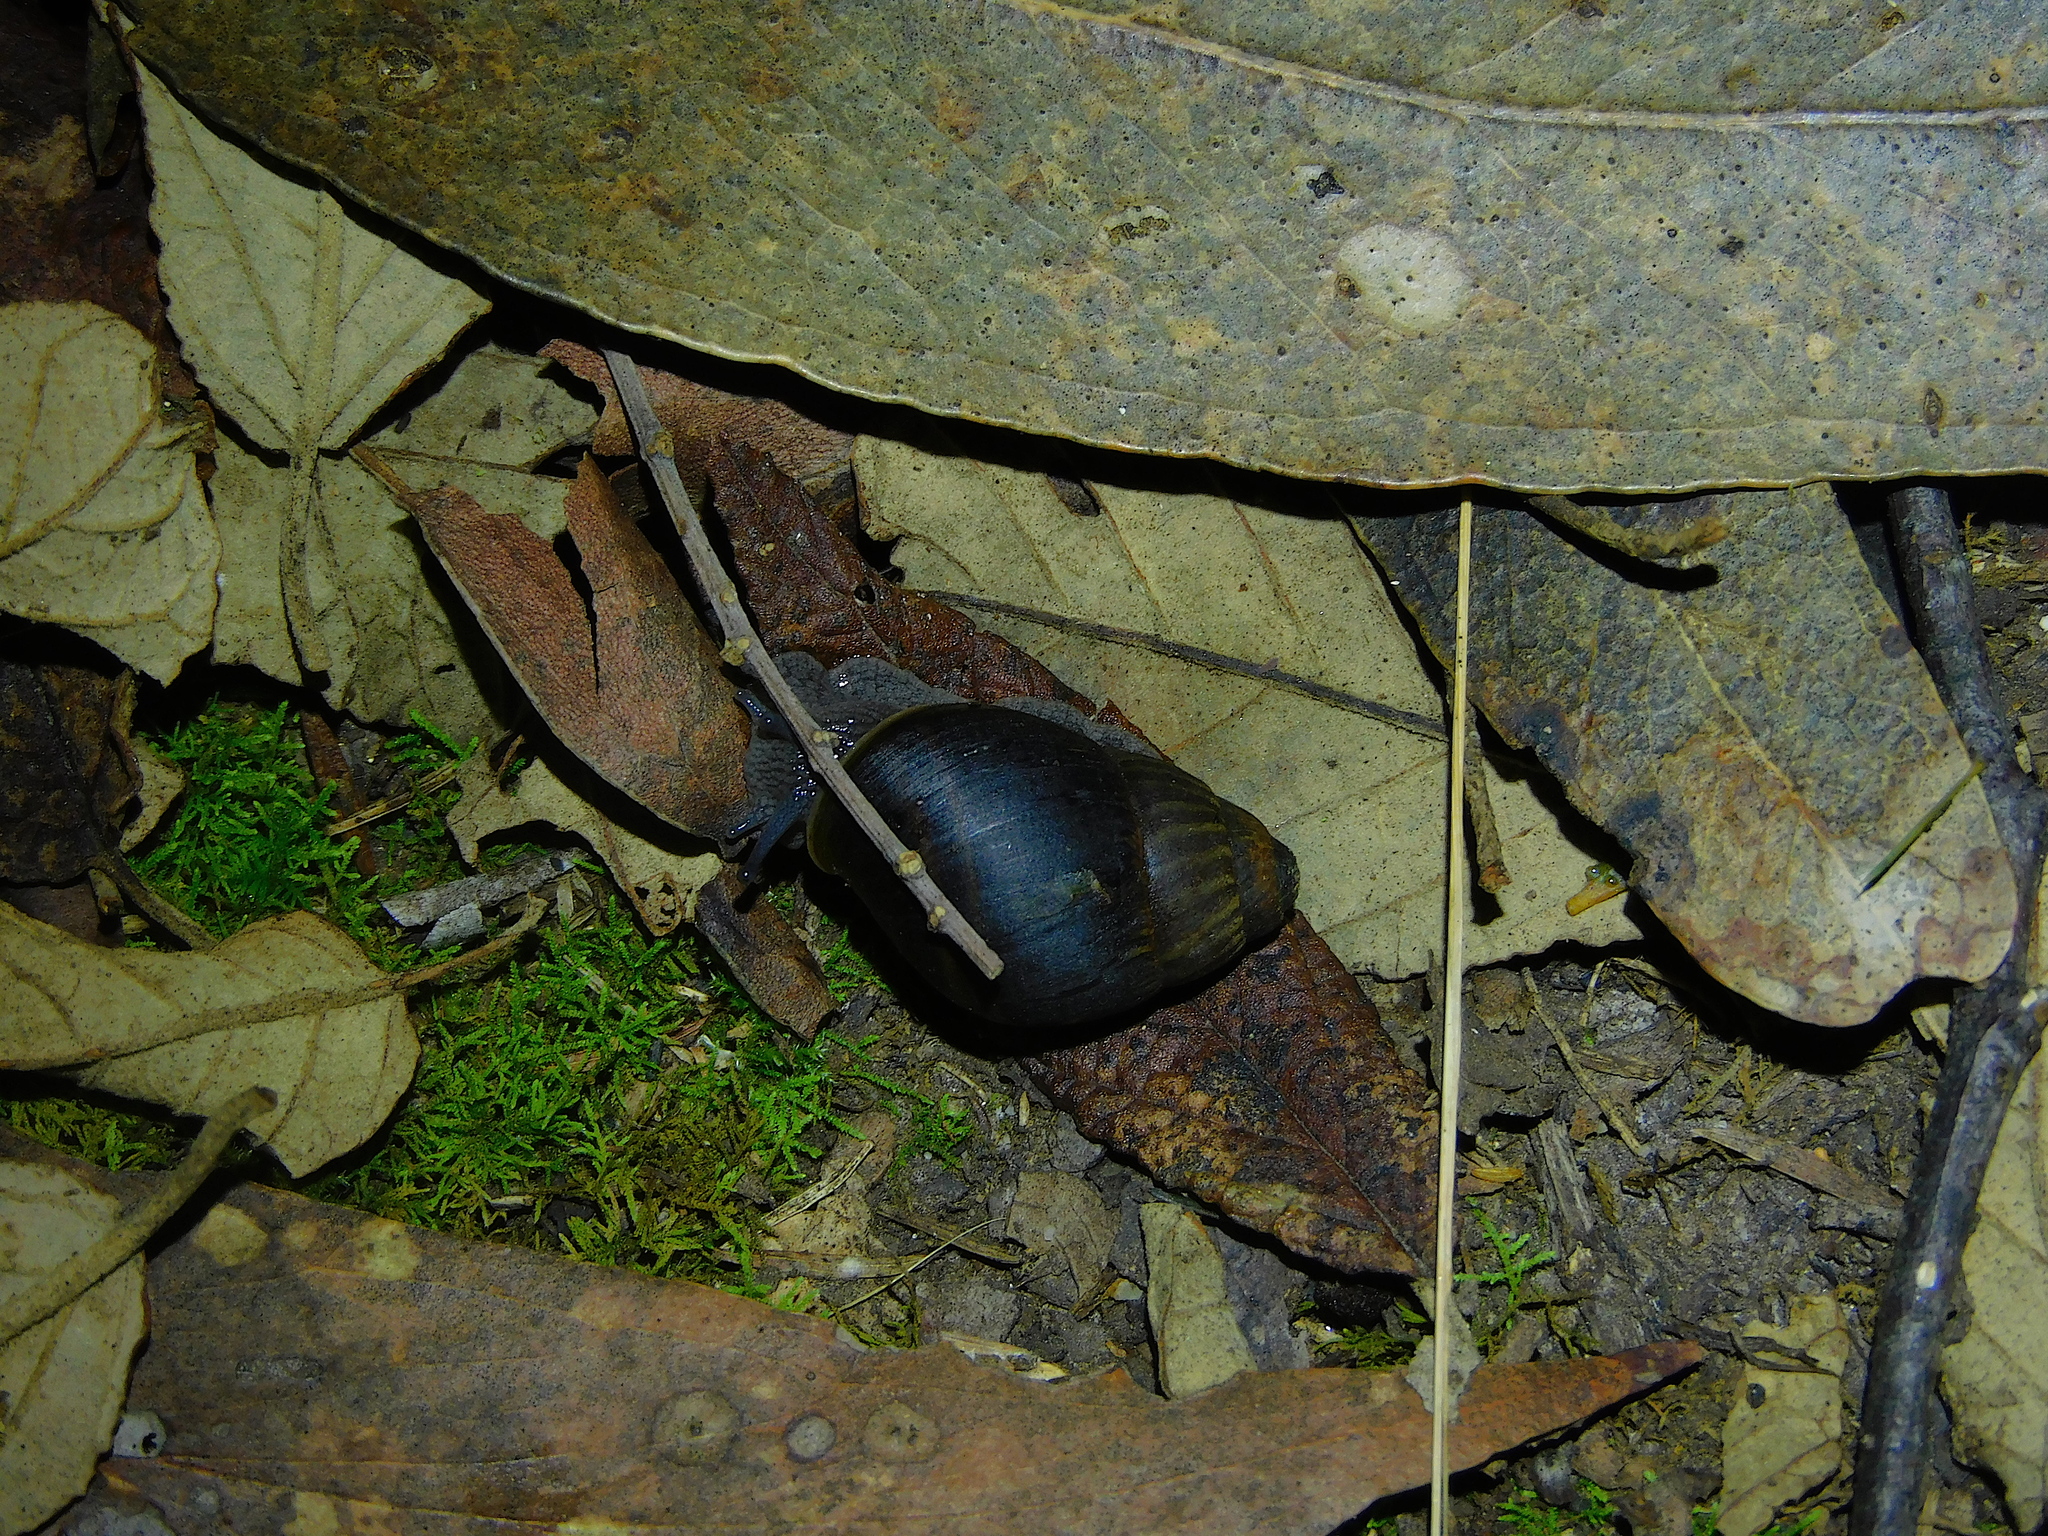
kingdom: Animalia
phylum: Mollusca
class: Gastropoda
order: Stylommatophora
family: Caryodidae
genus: Caryodes
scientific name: Caryodes dufresnii
